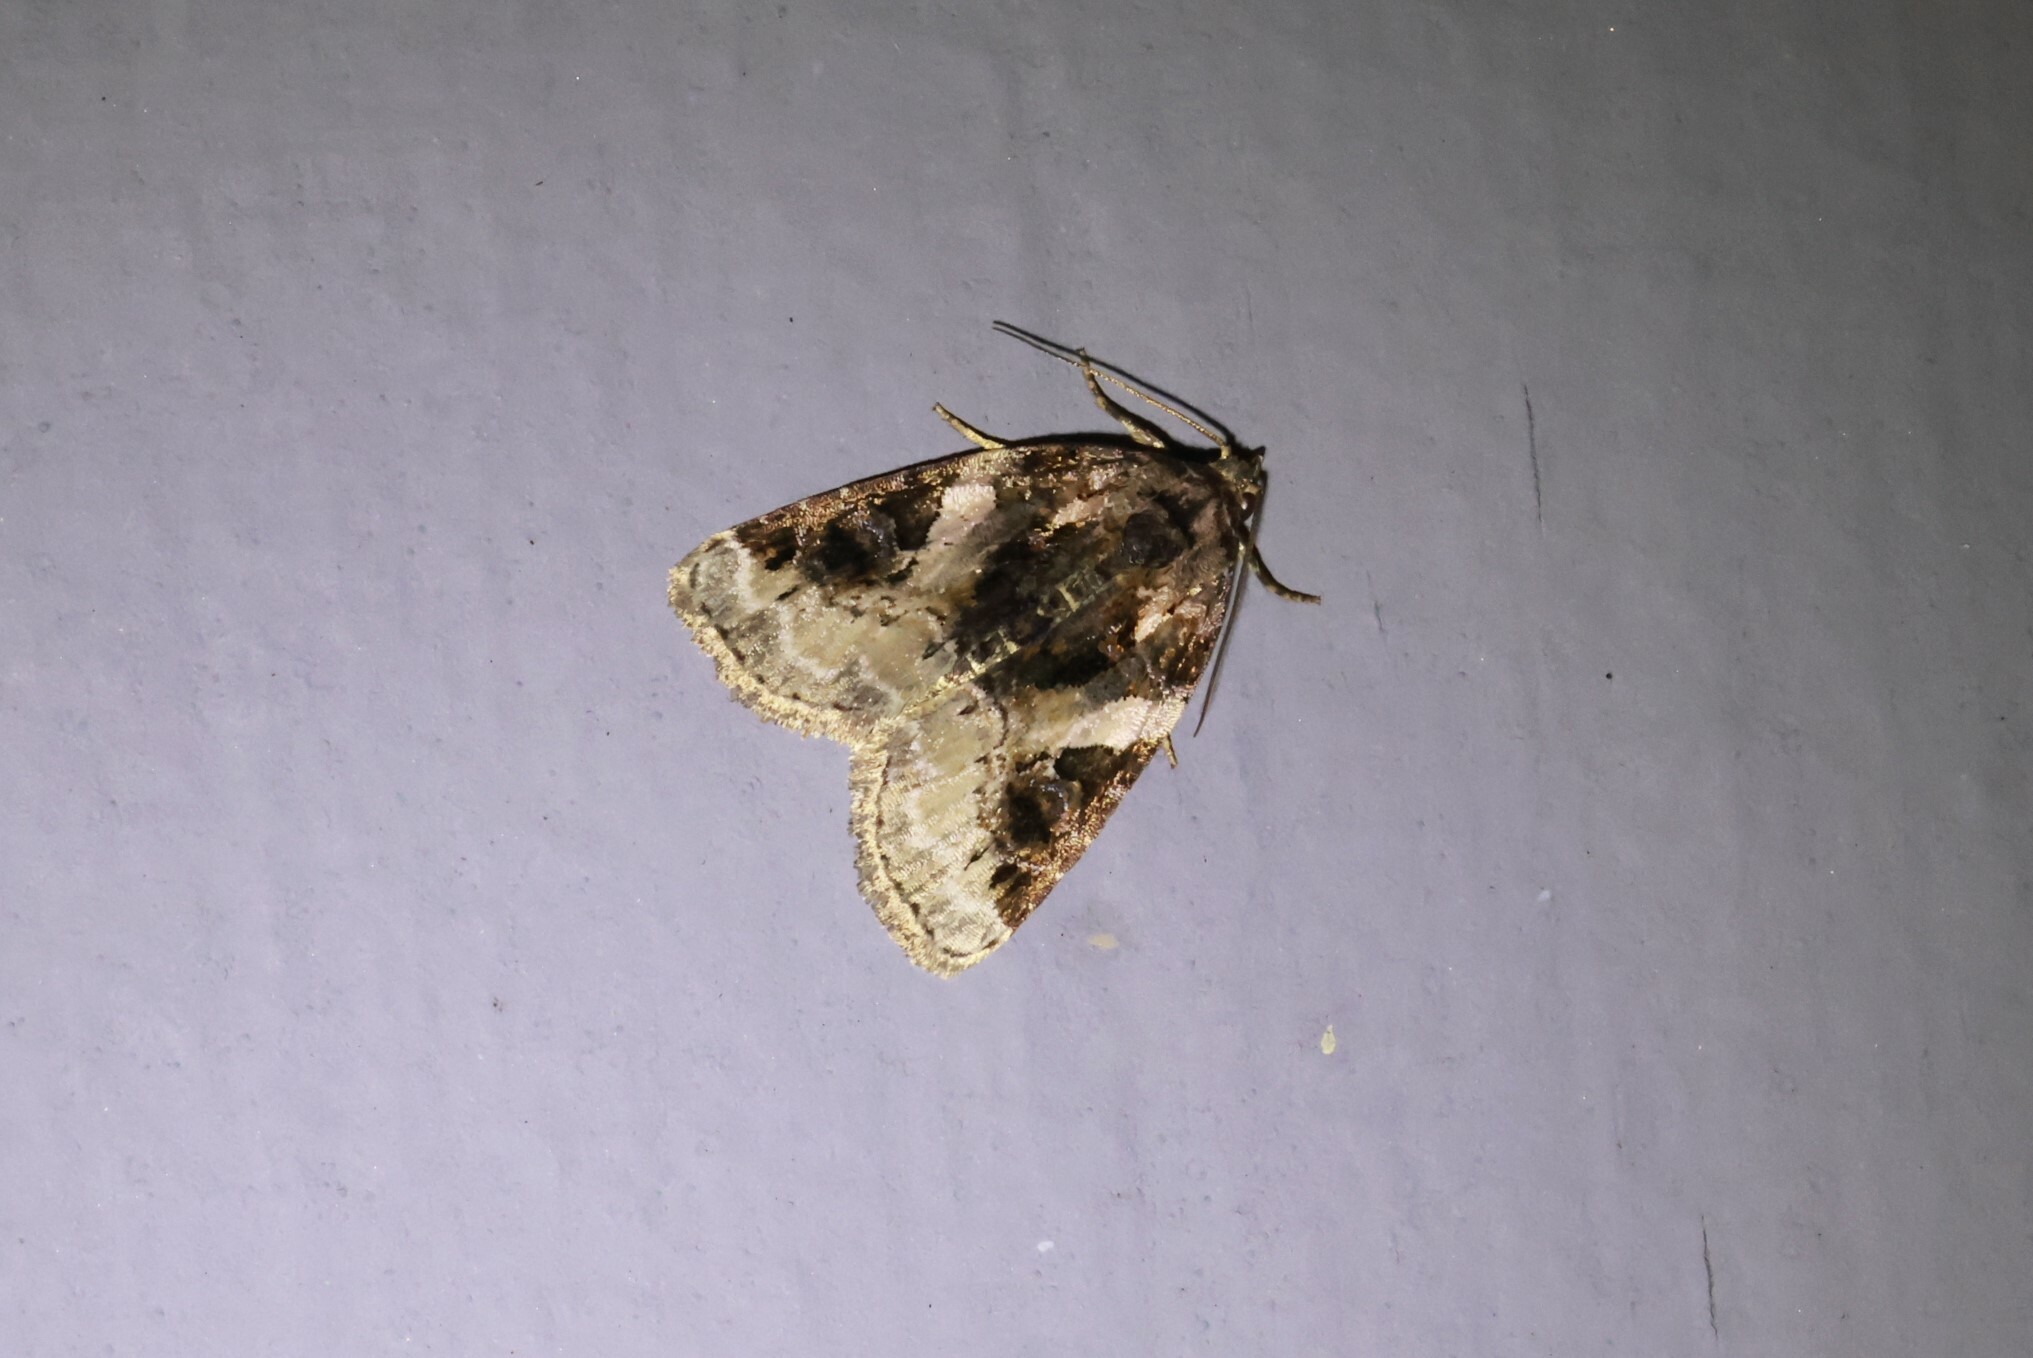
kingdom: Animalia
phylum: Arthropoda
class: Insecta
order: Lepidoptera
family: Noctuidae
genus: Pseudeustrotia
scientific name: Pseudeustrotia carneola
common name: Pink-barred lithacodia moth
